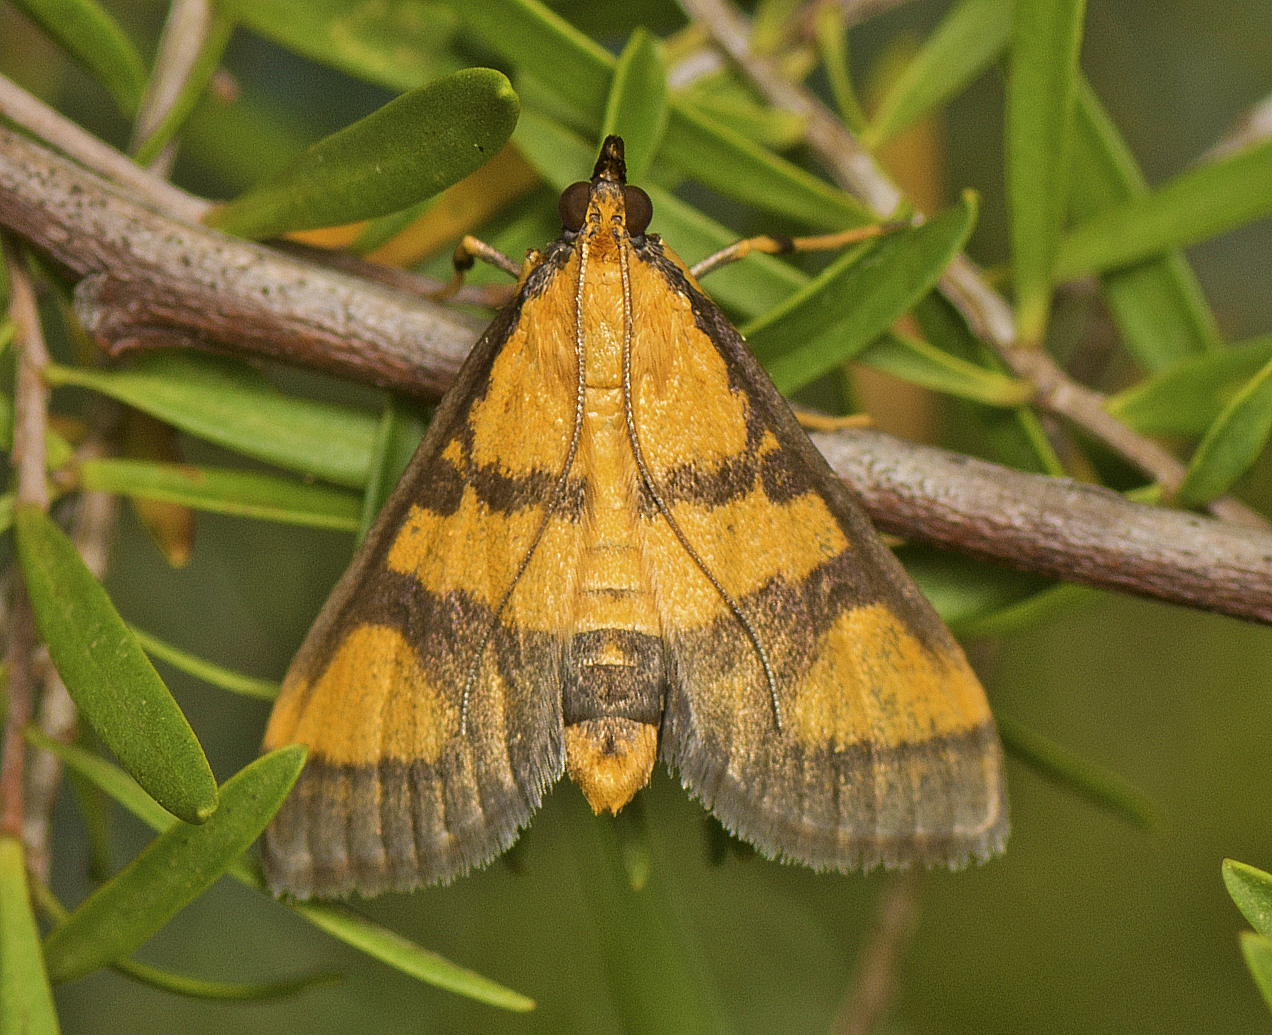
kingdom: Animalia
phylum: Arthropoda
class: Insecta
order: Lepidoptera
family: Crambidae
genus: Metallarcha
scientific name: Metallarcha achoeusalis
